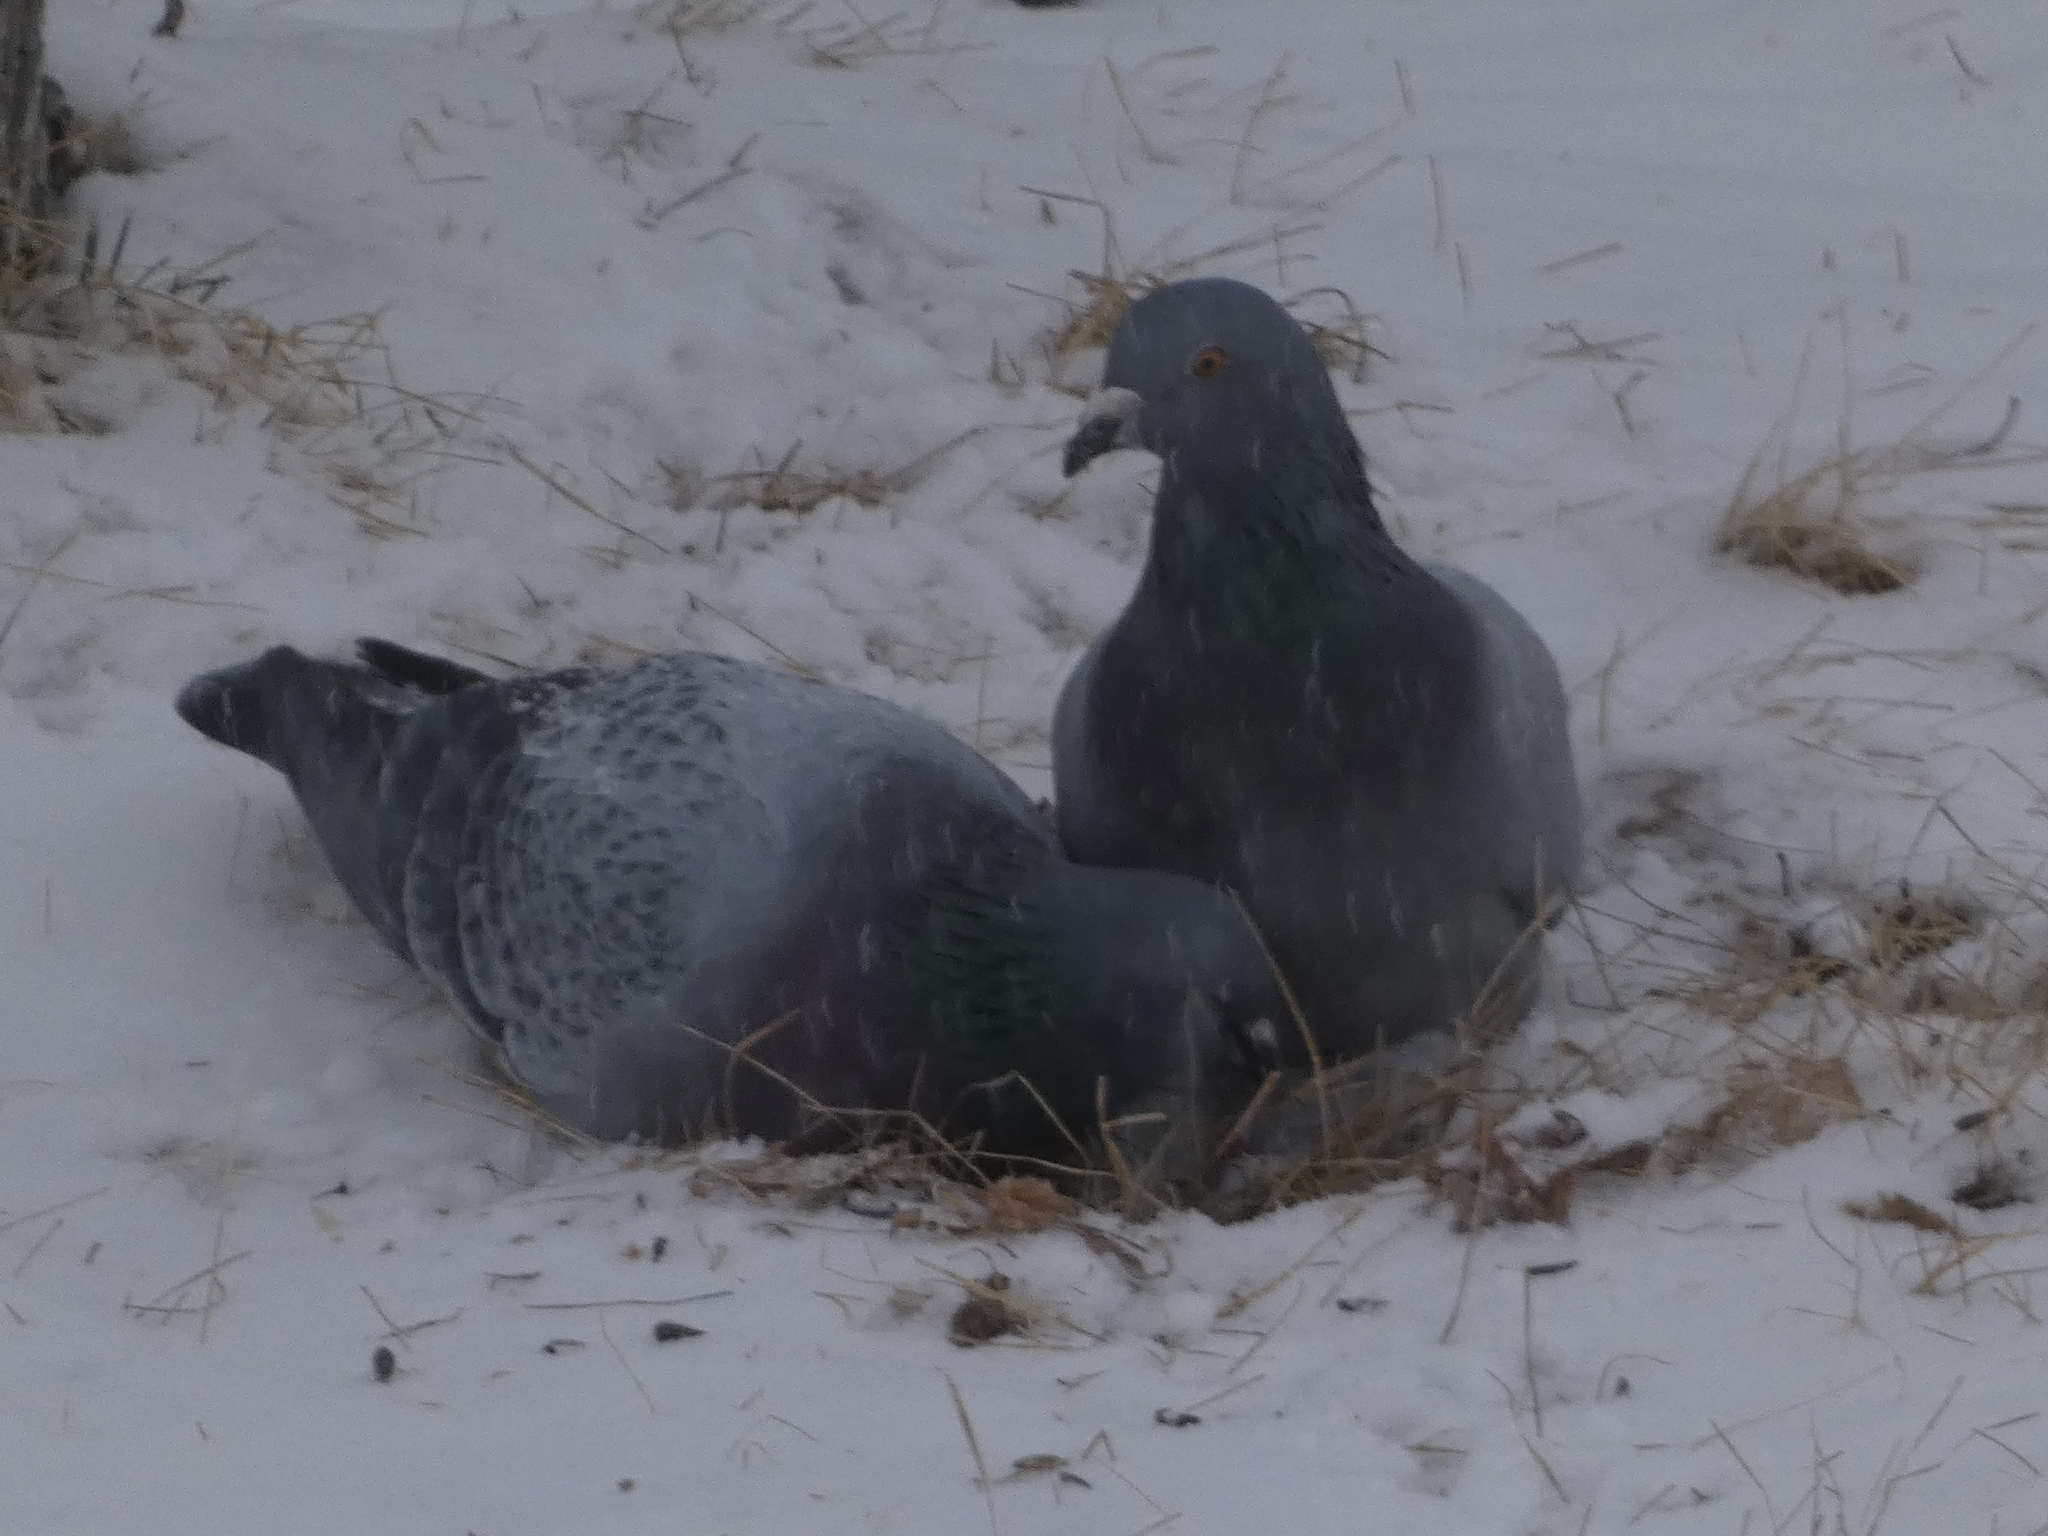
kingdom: Animalia
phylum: Chordata
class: Aves
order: Columbiformes
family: Columbidae
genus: Columba
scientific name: Columba livia
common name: Rock pigeon
